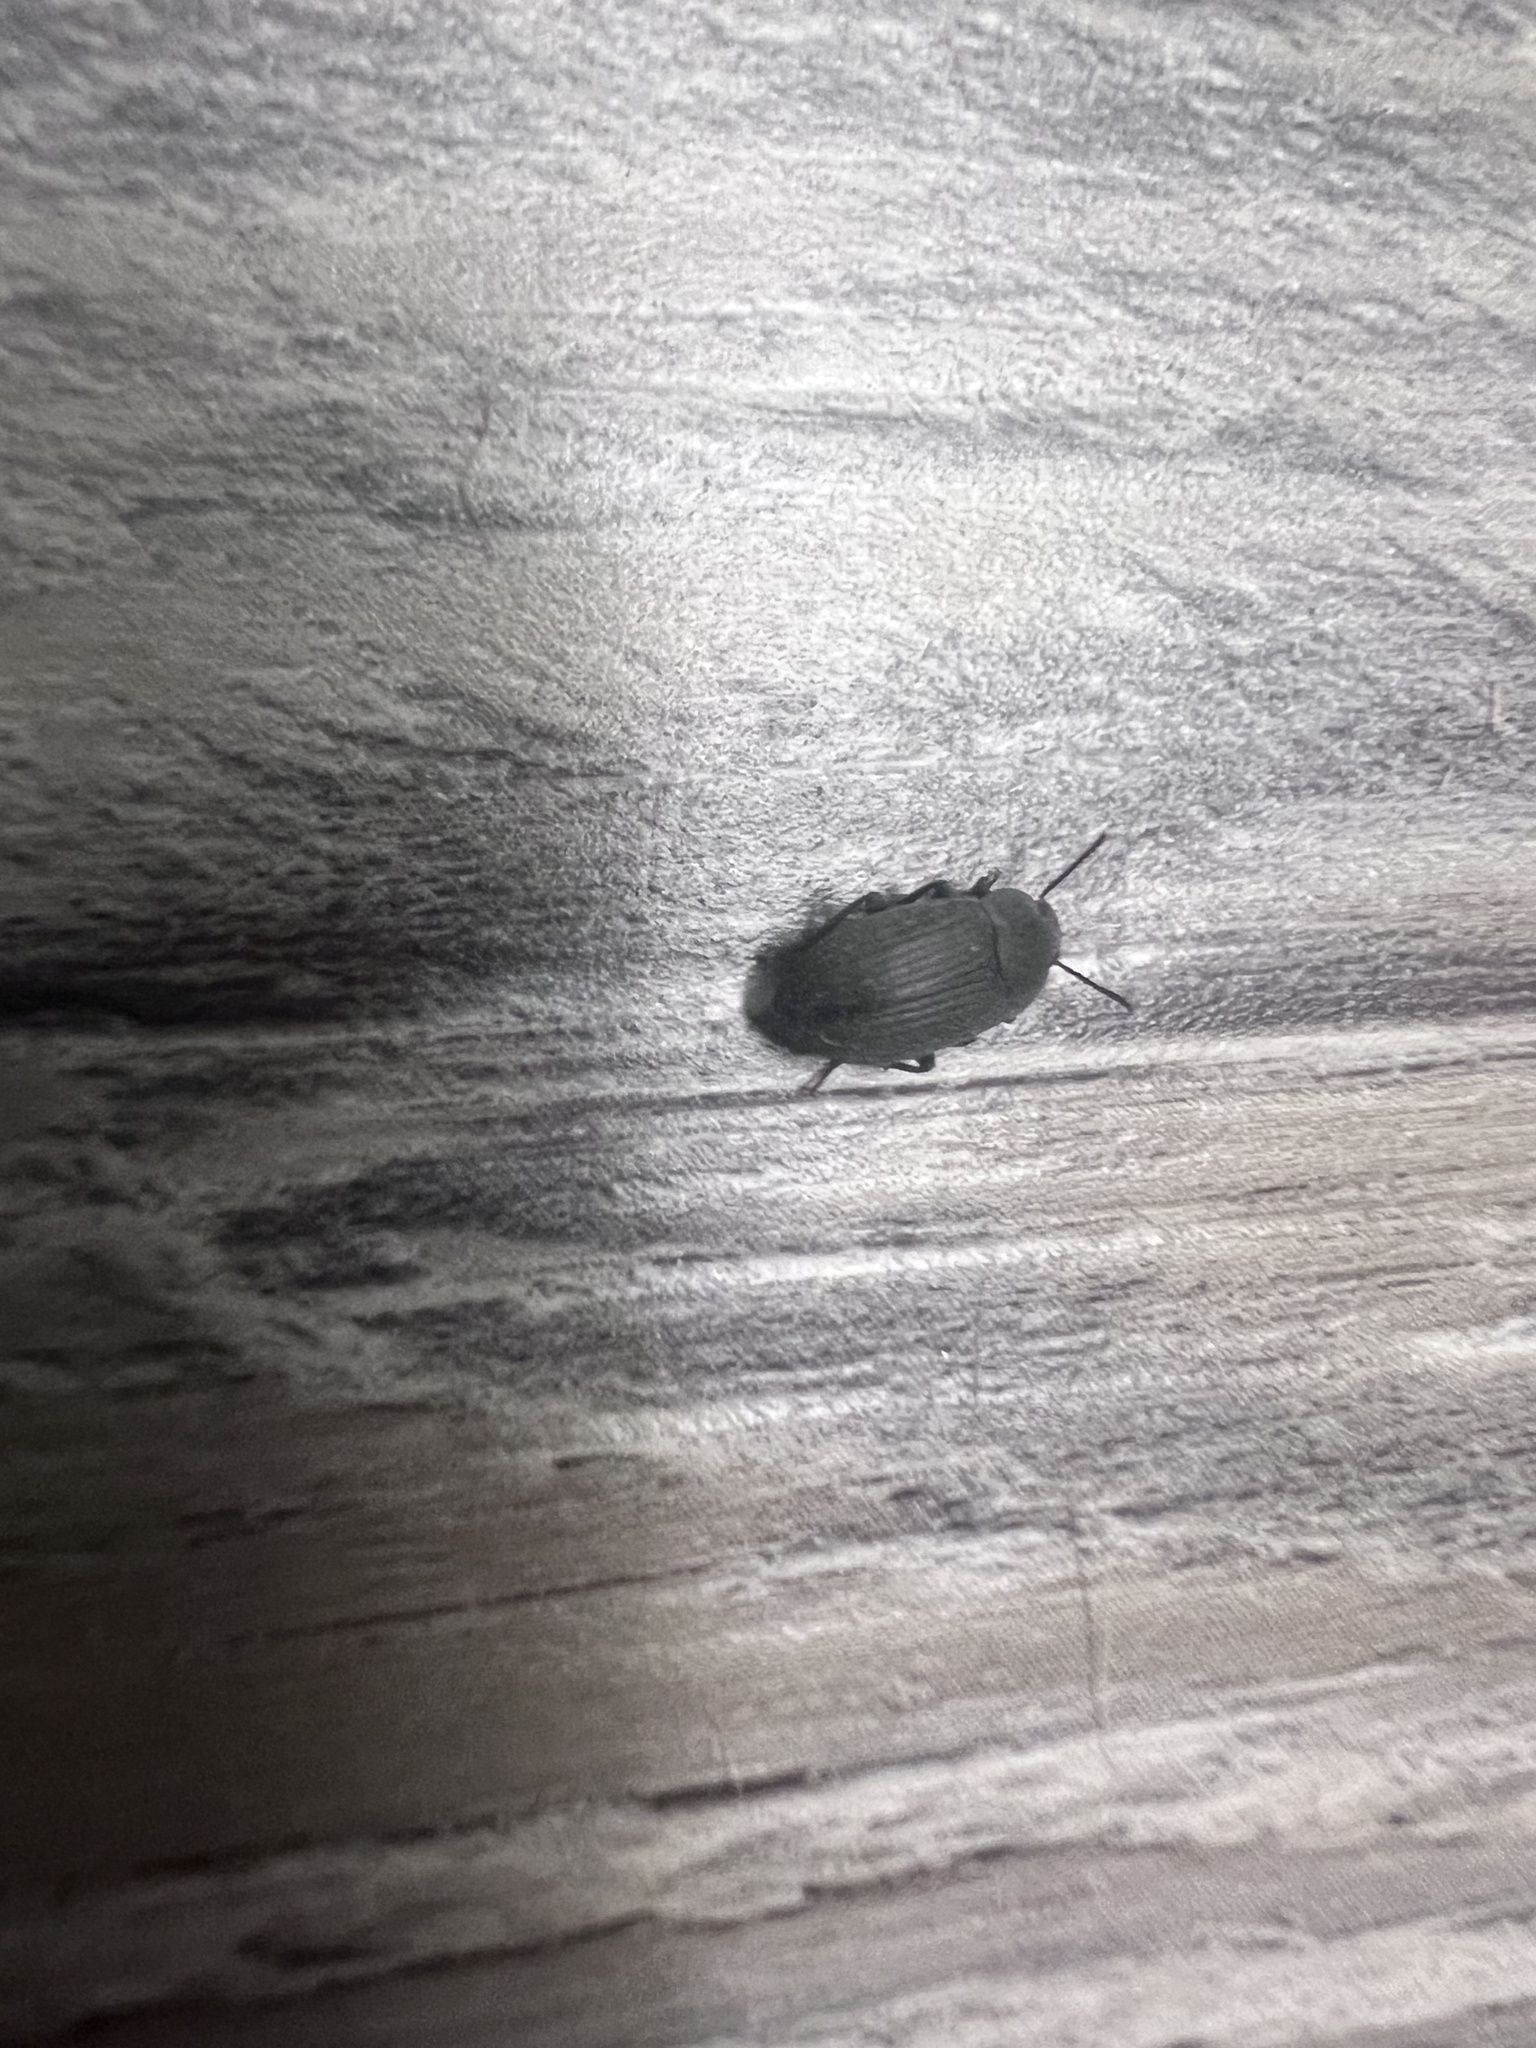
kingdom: Animalia
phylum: Arthropoda
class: Insecta
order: Coleoptera
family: Tenebrionidae
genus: Blapstinus
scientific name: Blapstinus fortis
